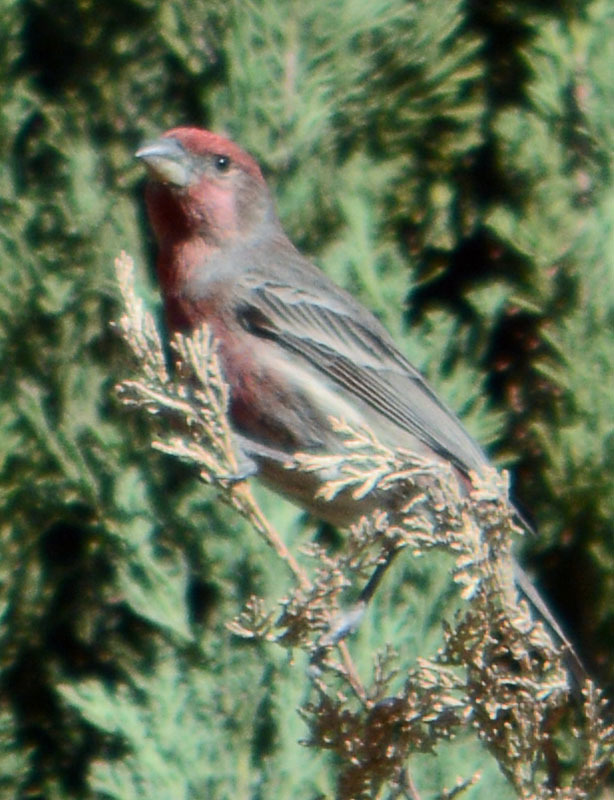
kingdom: Animalia
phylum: Chordata
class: Aves
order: Passeriformes
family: Fringillidae
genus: Haemorhous
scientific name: Haemorhous mexicanus
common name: House finch
